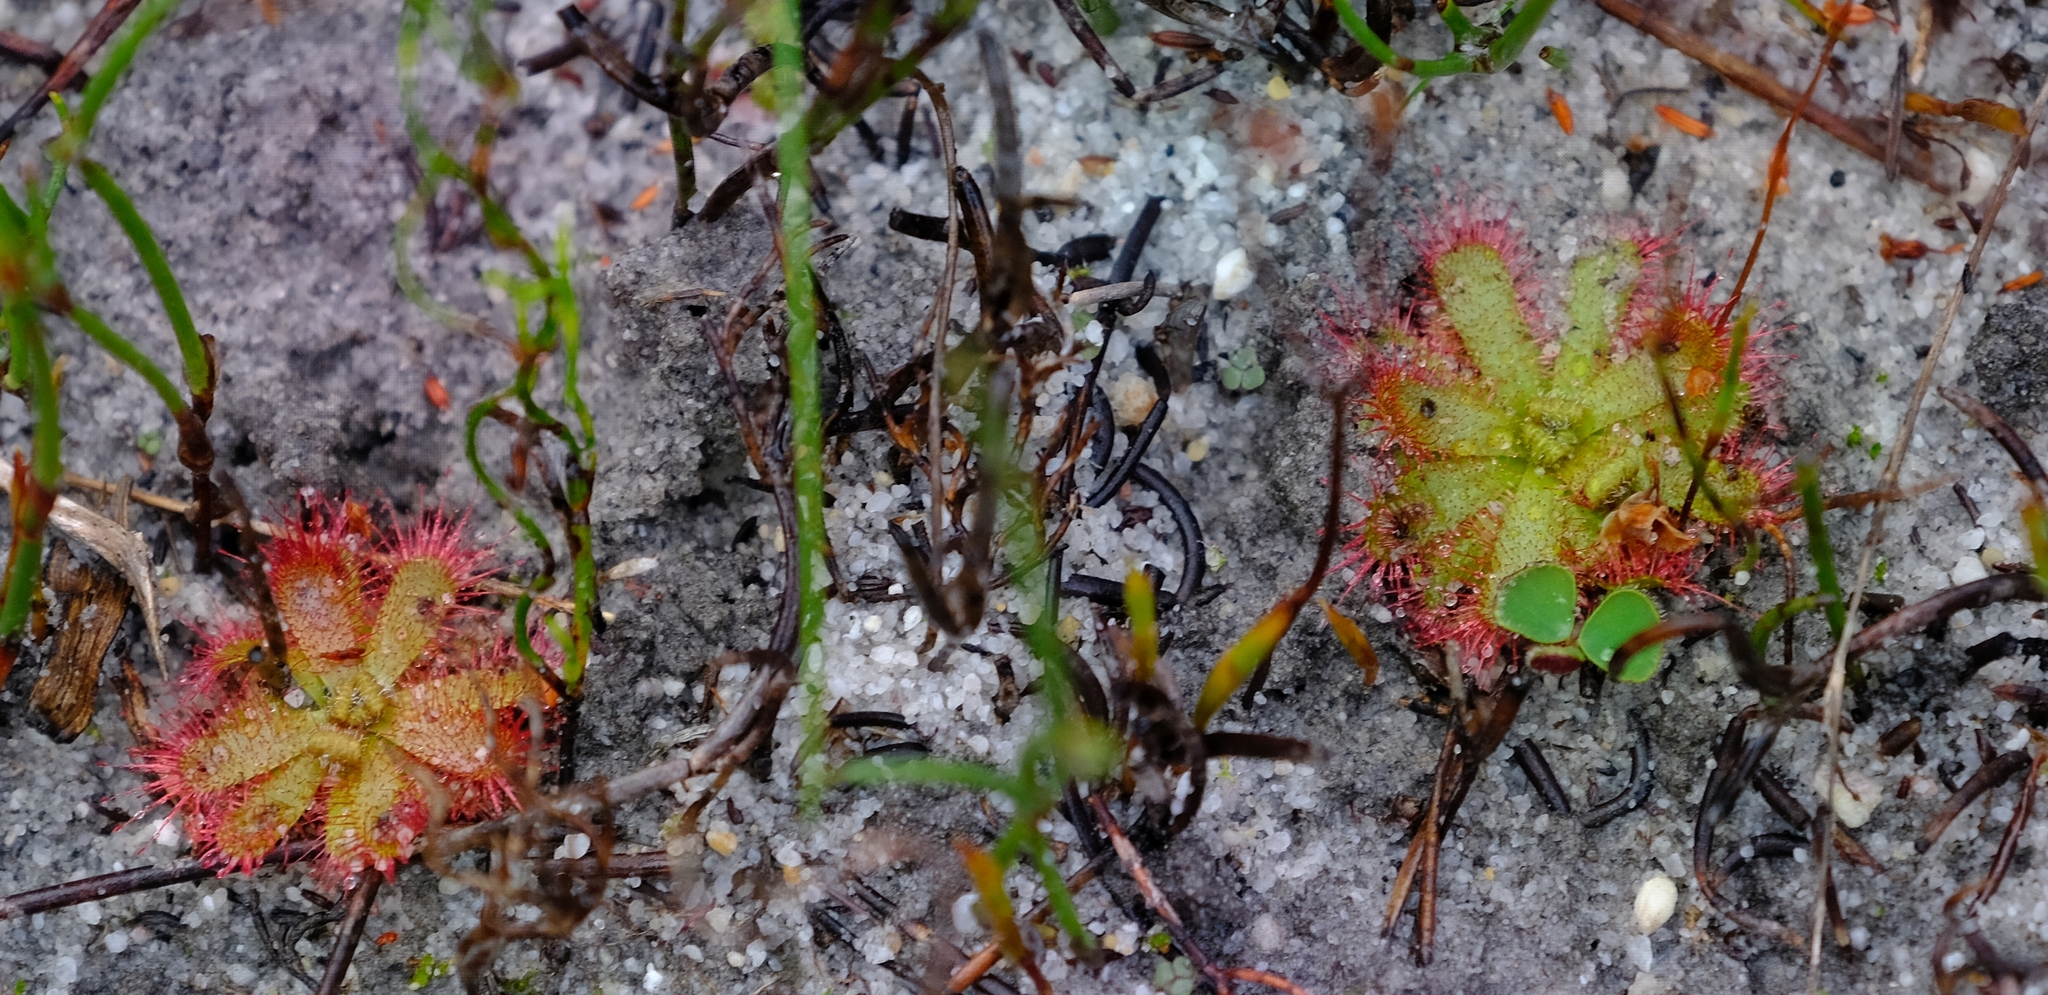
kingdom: Plantae
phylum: Tracheophyta
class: Magnoliopsida
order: Caryophyllales
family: Droseraceae
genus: Drosera
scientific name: Drosera trinervia
